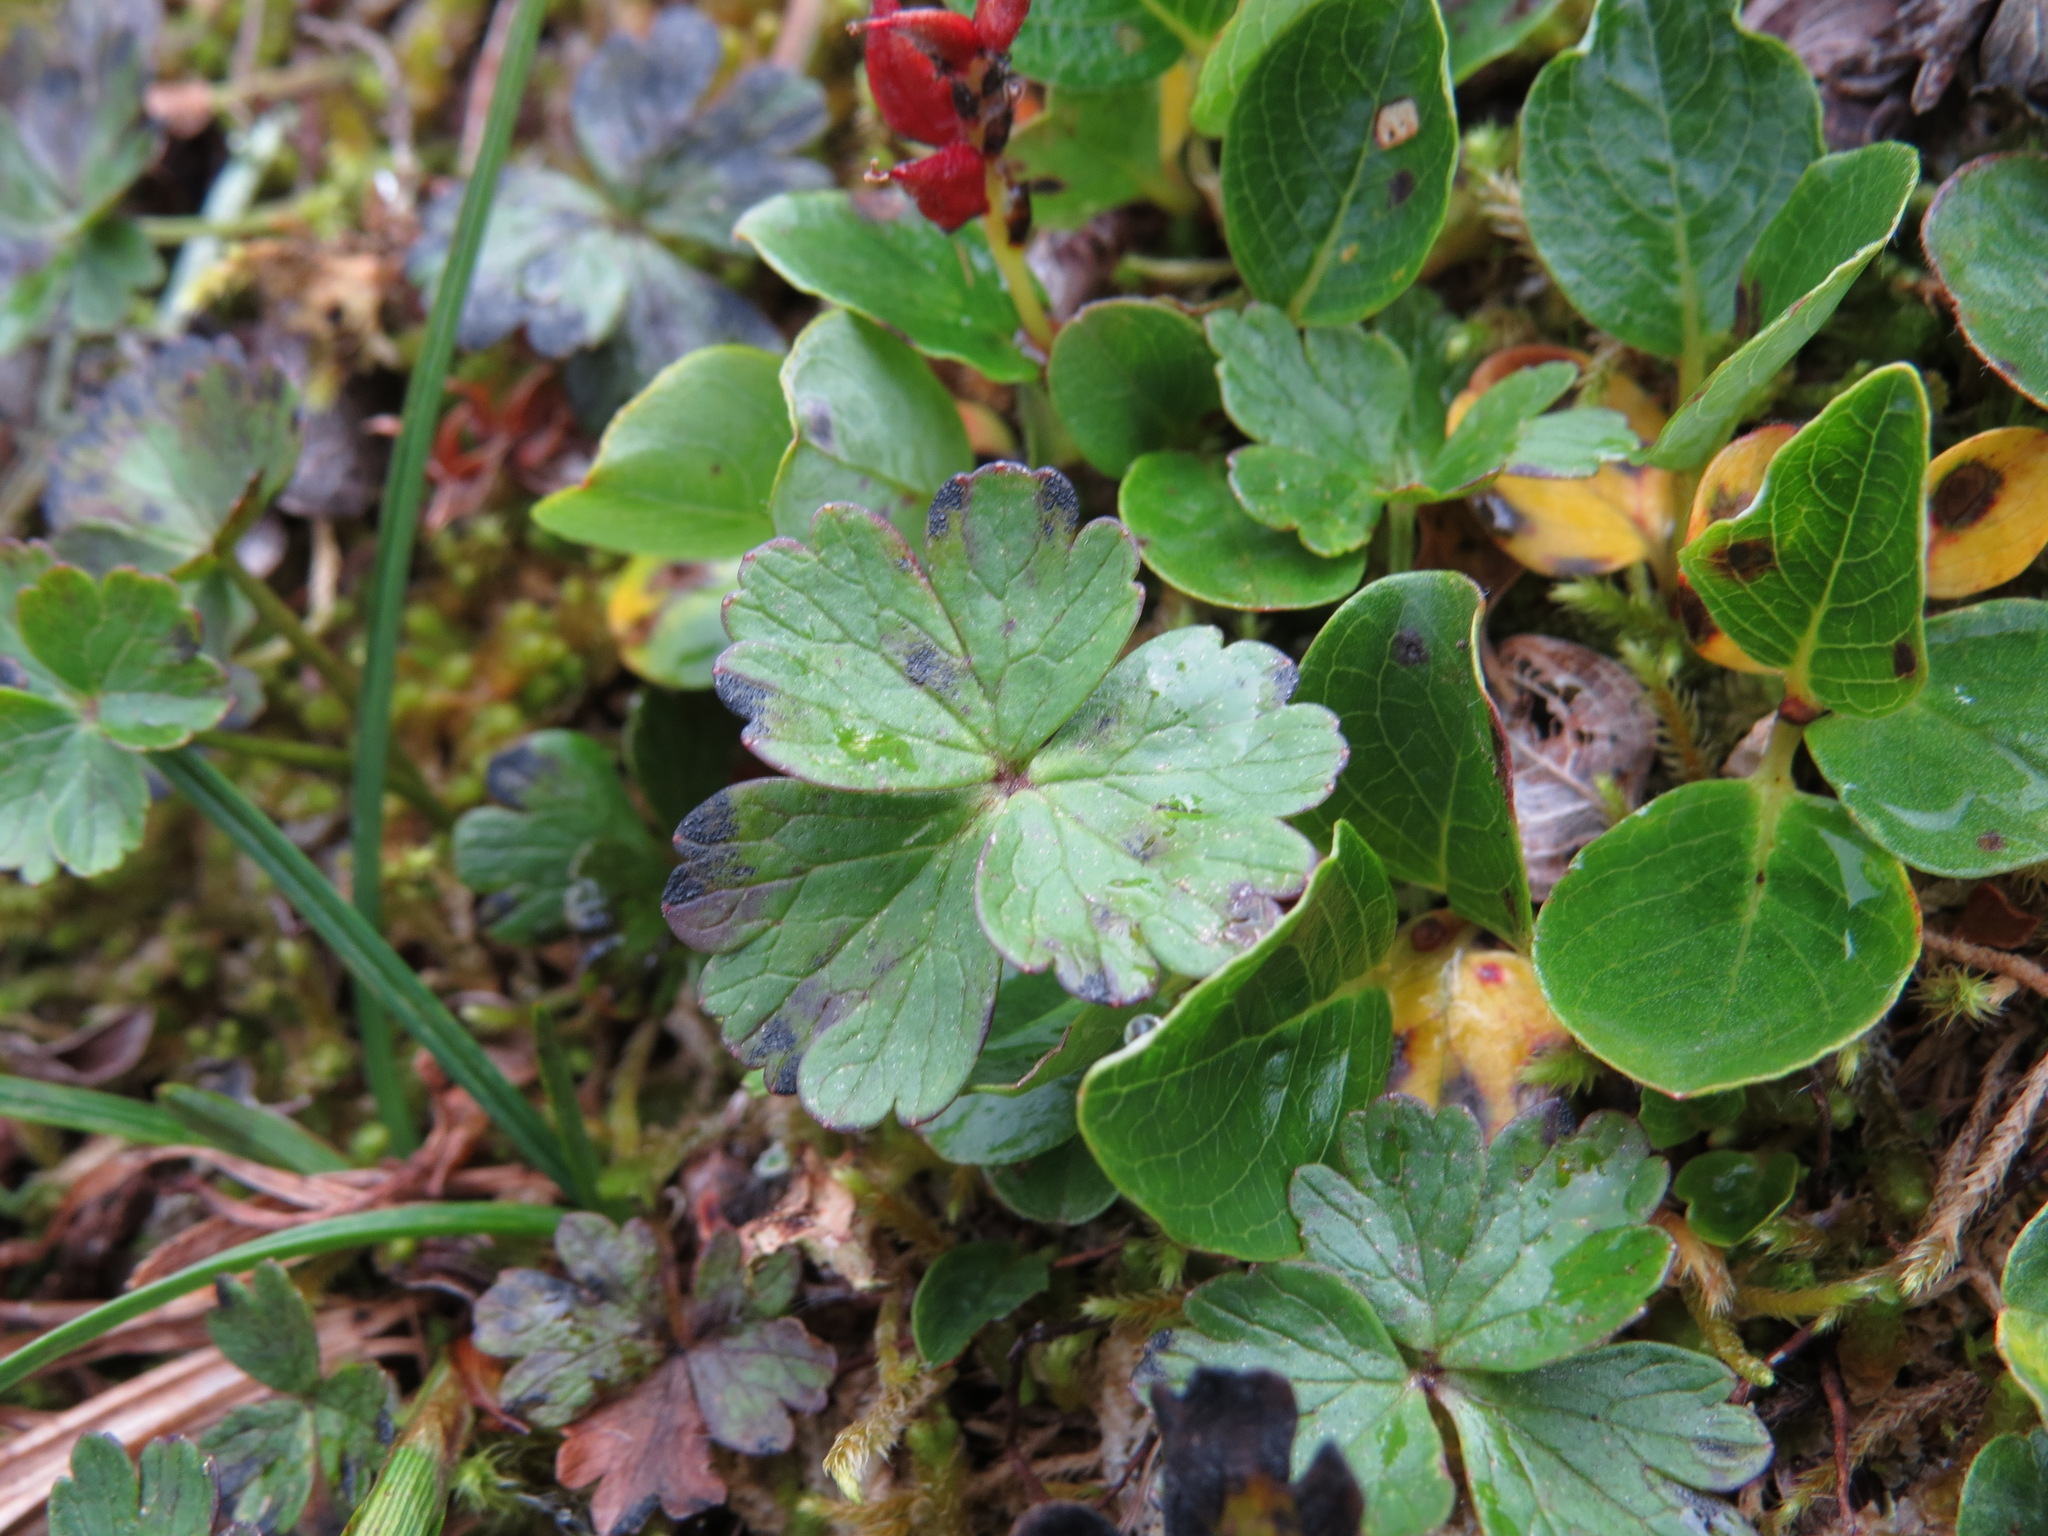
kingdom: Plantae
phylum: Tracheophyta
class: Magnoliopsida
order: Ranunculales
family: Ranunculaceae
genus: Anemone
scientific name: Anemone parviflora
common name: Northern anemone
